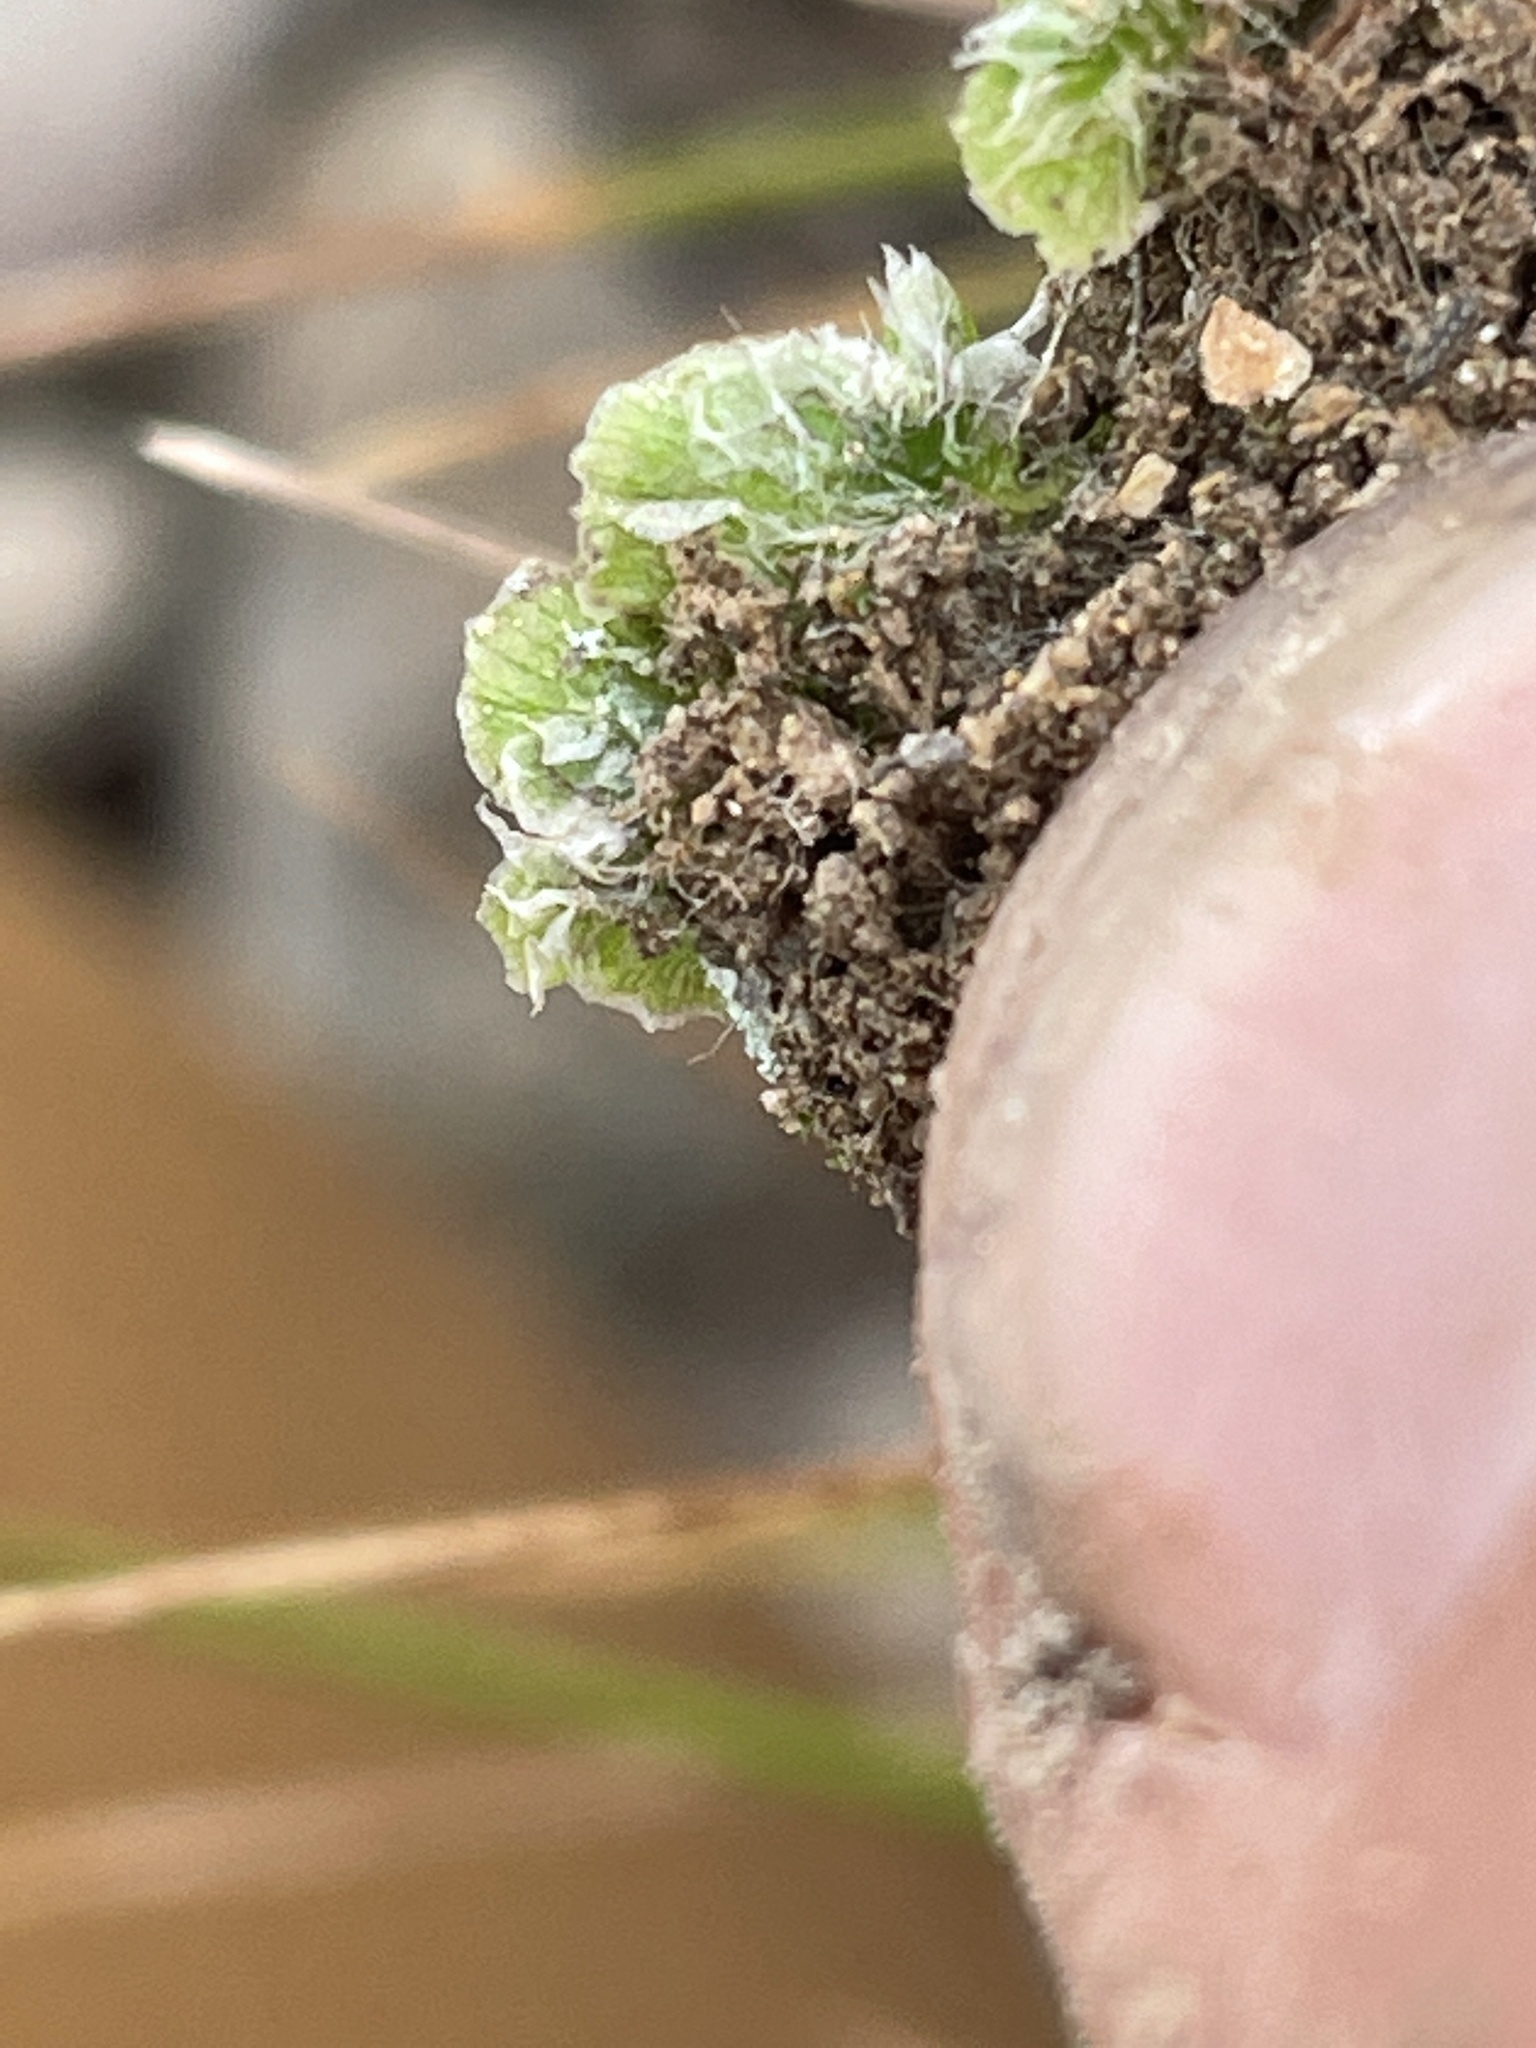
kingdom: Plantae
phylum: Marchantiophyta
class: Marchantiopsida
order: Marchantiales
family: Cleveaceae
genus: Clevea
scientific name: Clevea hyalina
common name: Hyaline liverwort
